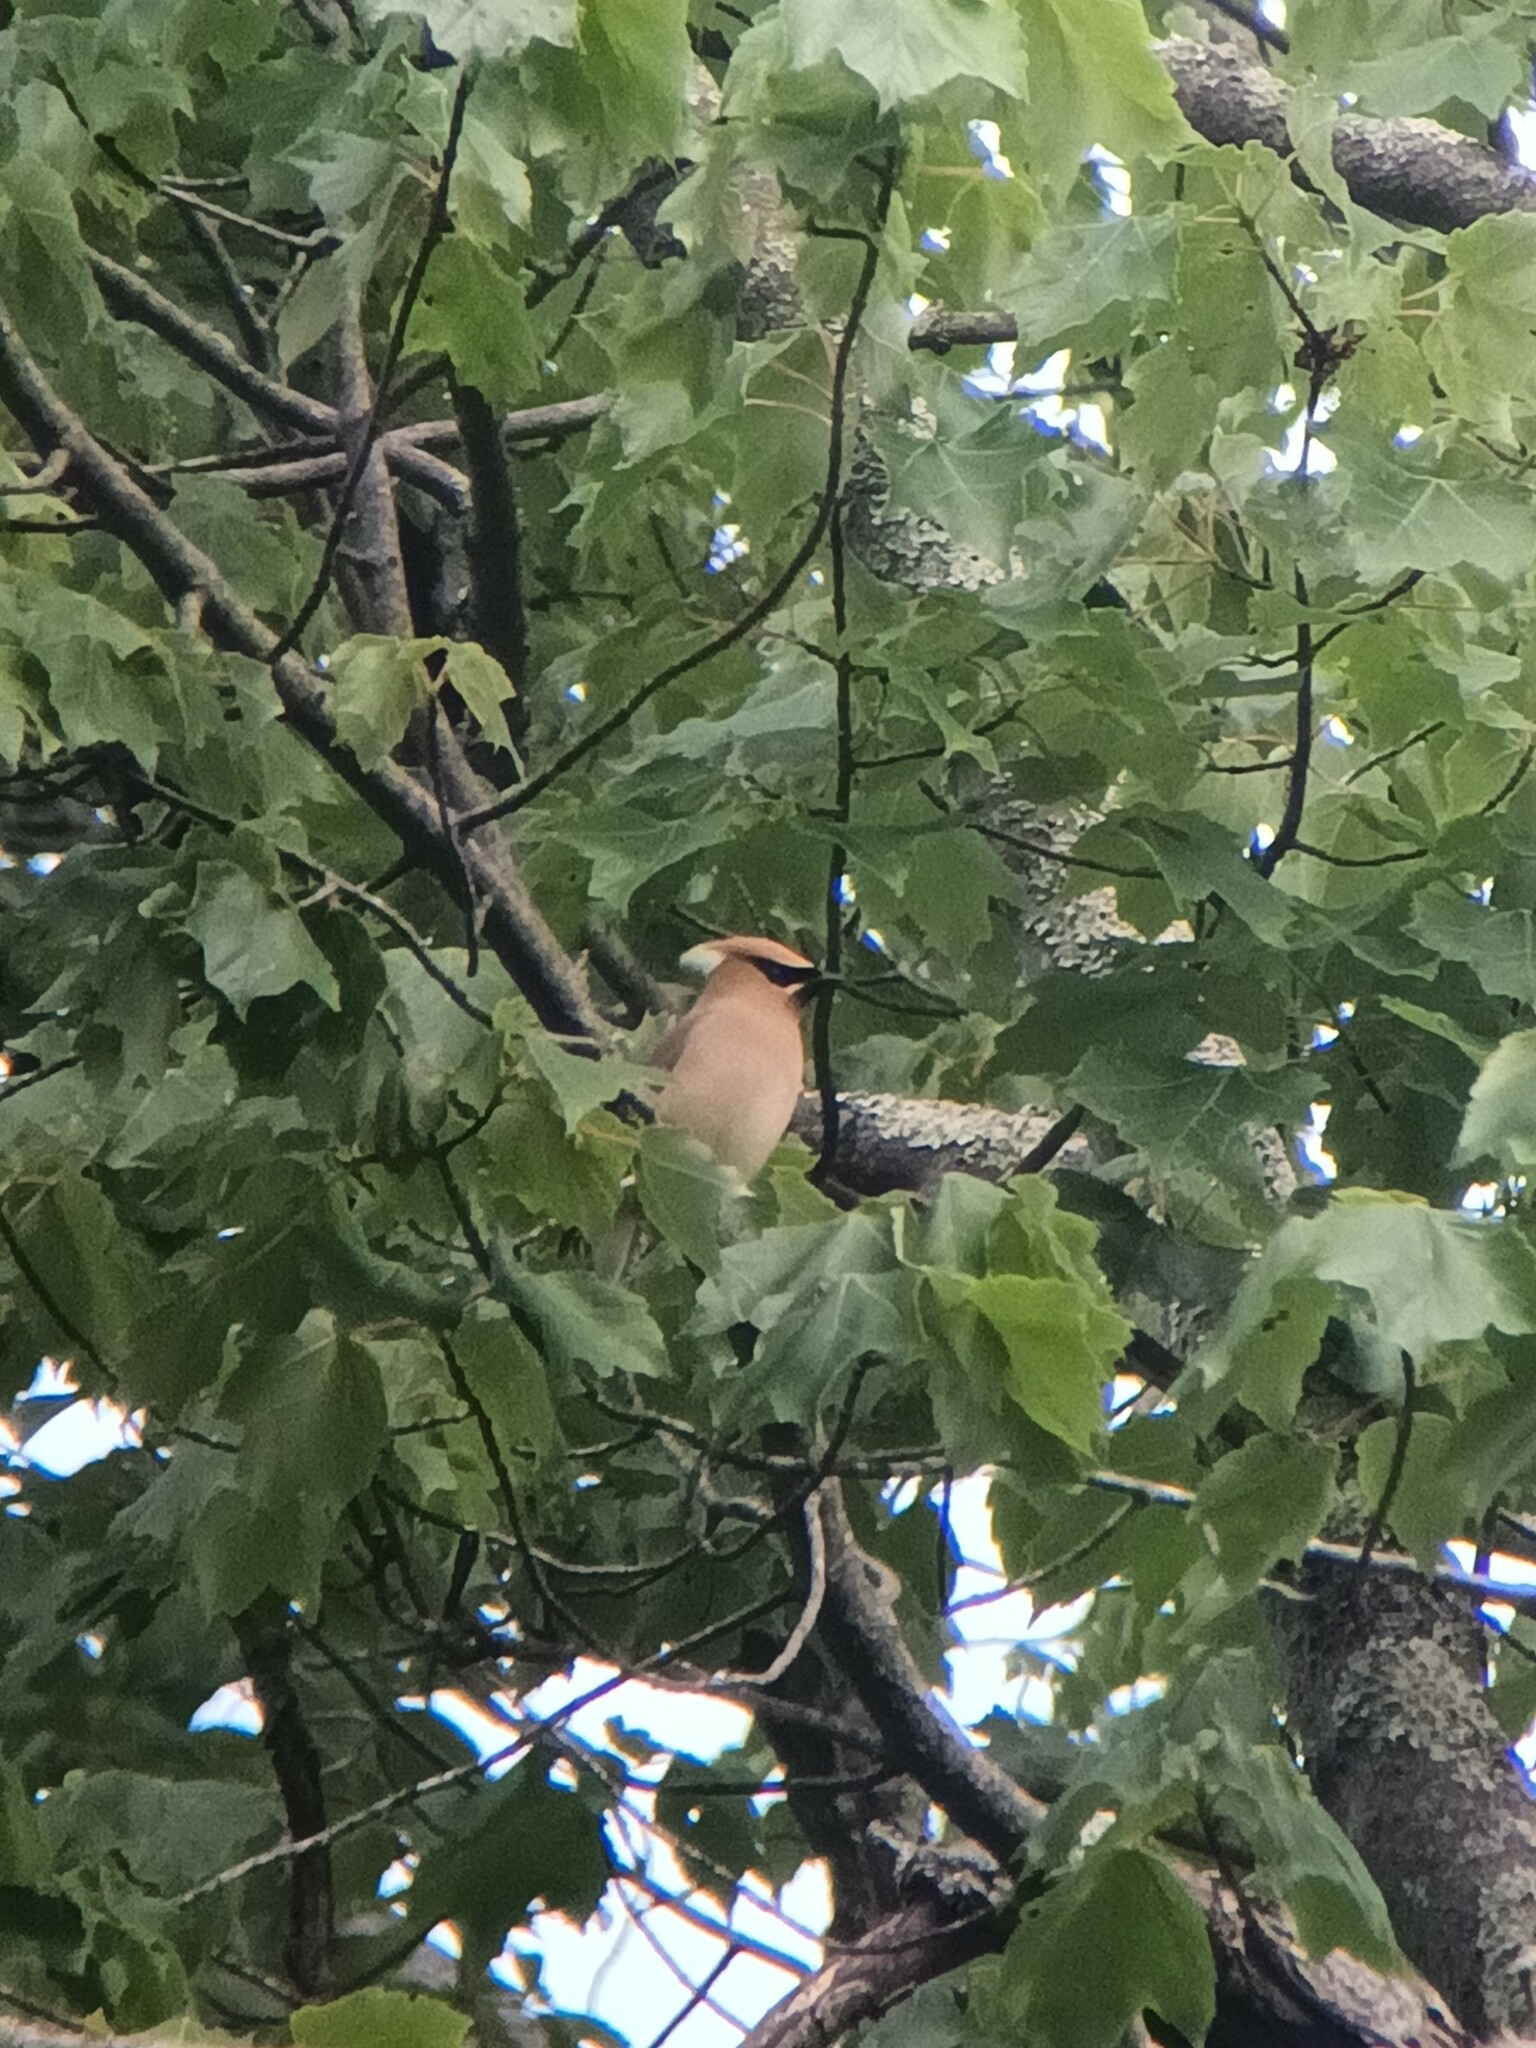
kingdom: Animalia
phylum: Chordata
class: Aves
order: Passeriformes
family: Bombycillidae
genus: Bombycilla
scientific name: Bombycilla cedrorum
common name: Cedar waxwing
